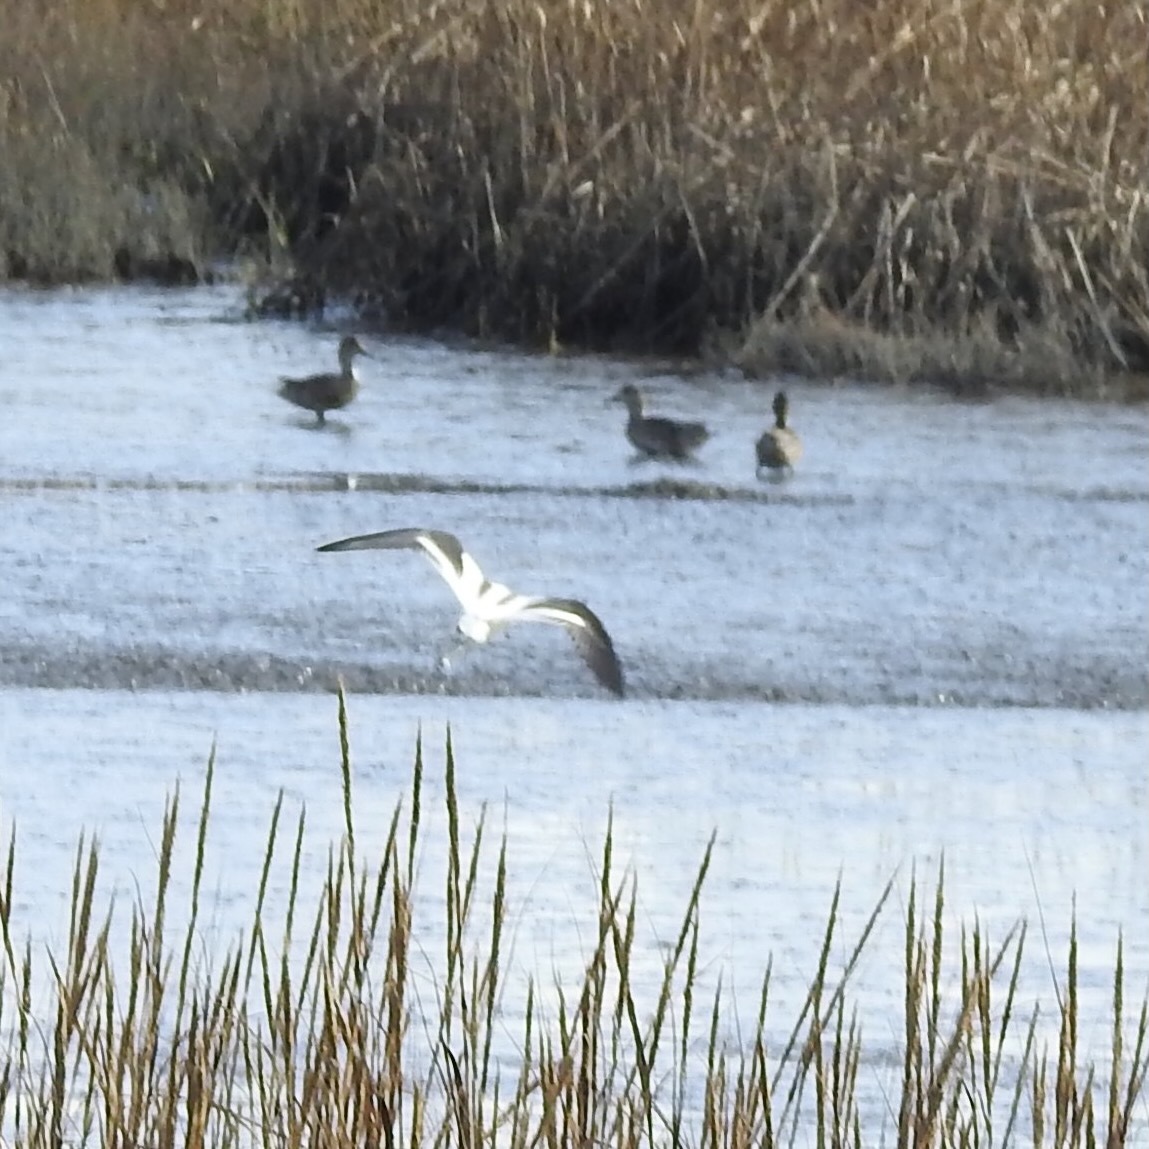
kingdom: Animalia
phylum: Chordata
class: Aves
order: Charadriiformes
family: Recurvirostridae
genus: Recurvirostra
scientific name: Recurvirostra americana
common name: American avocet
